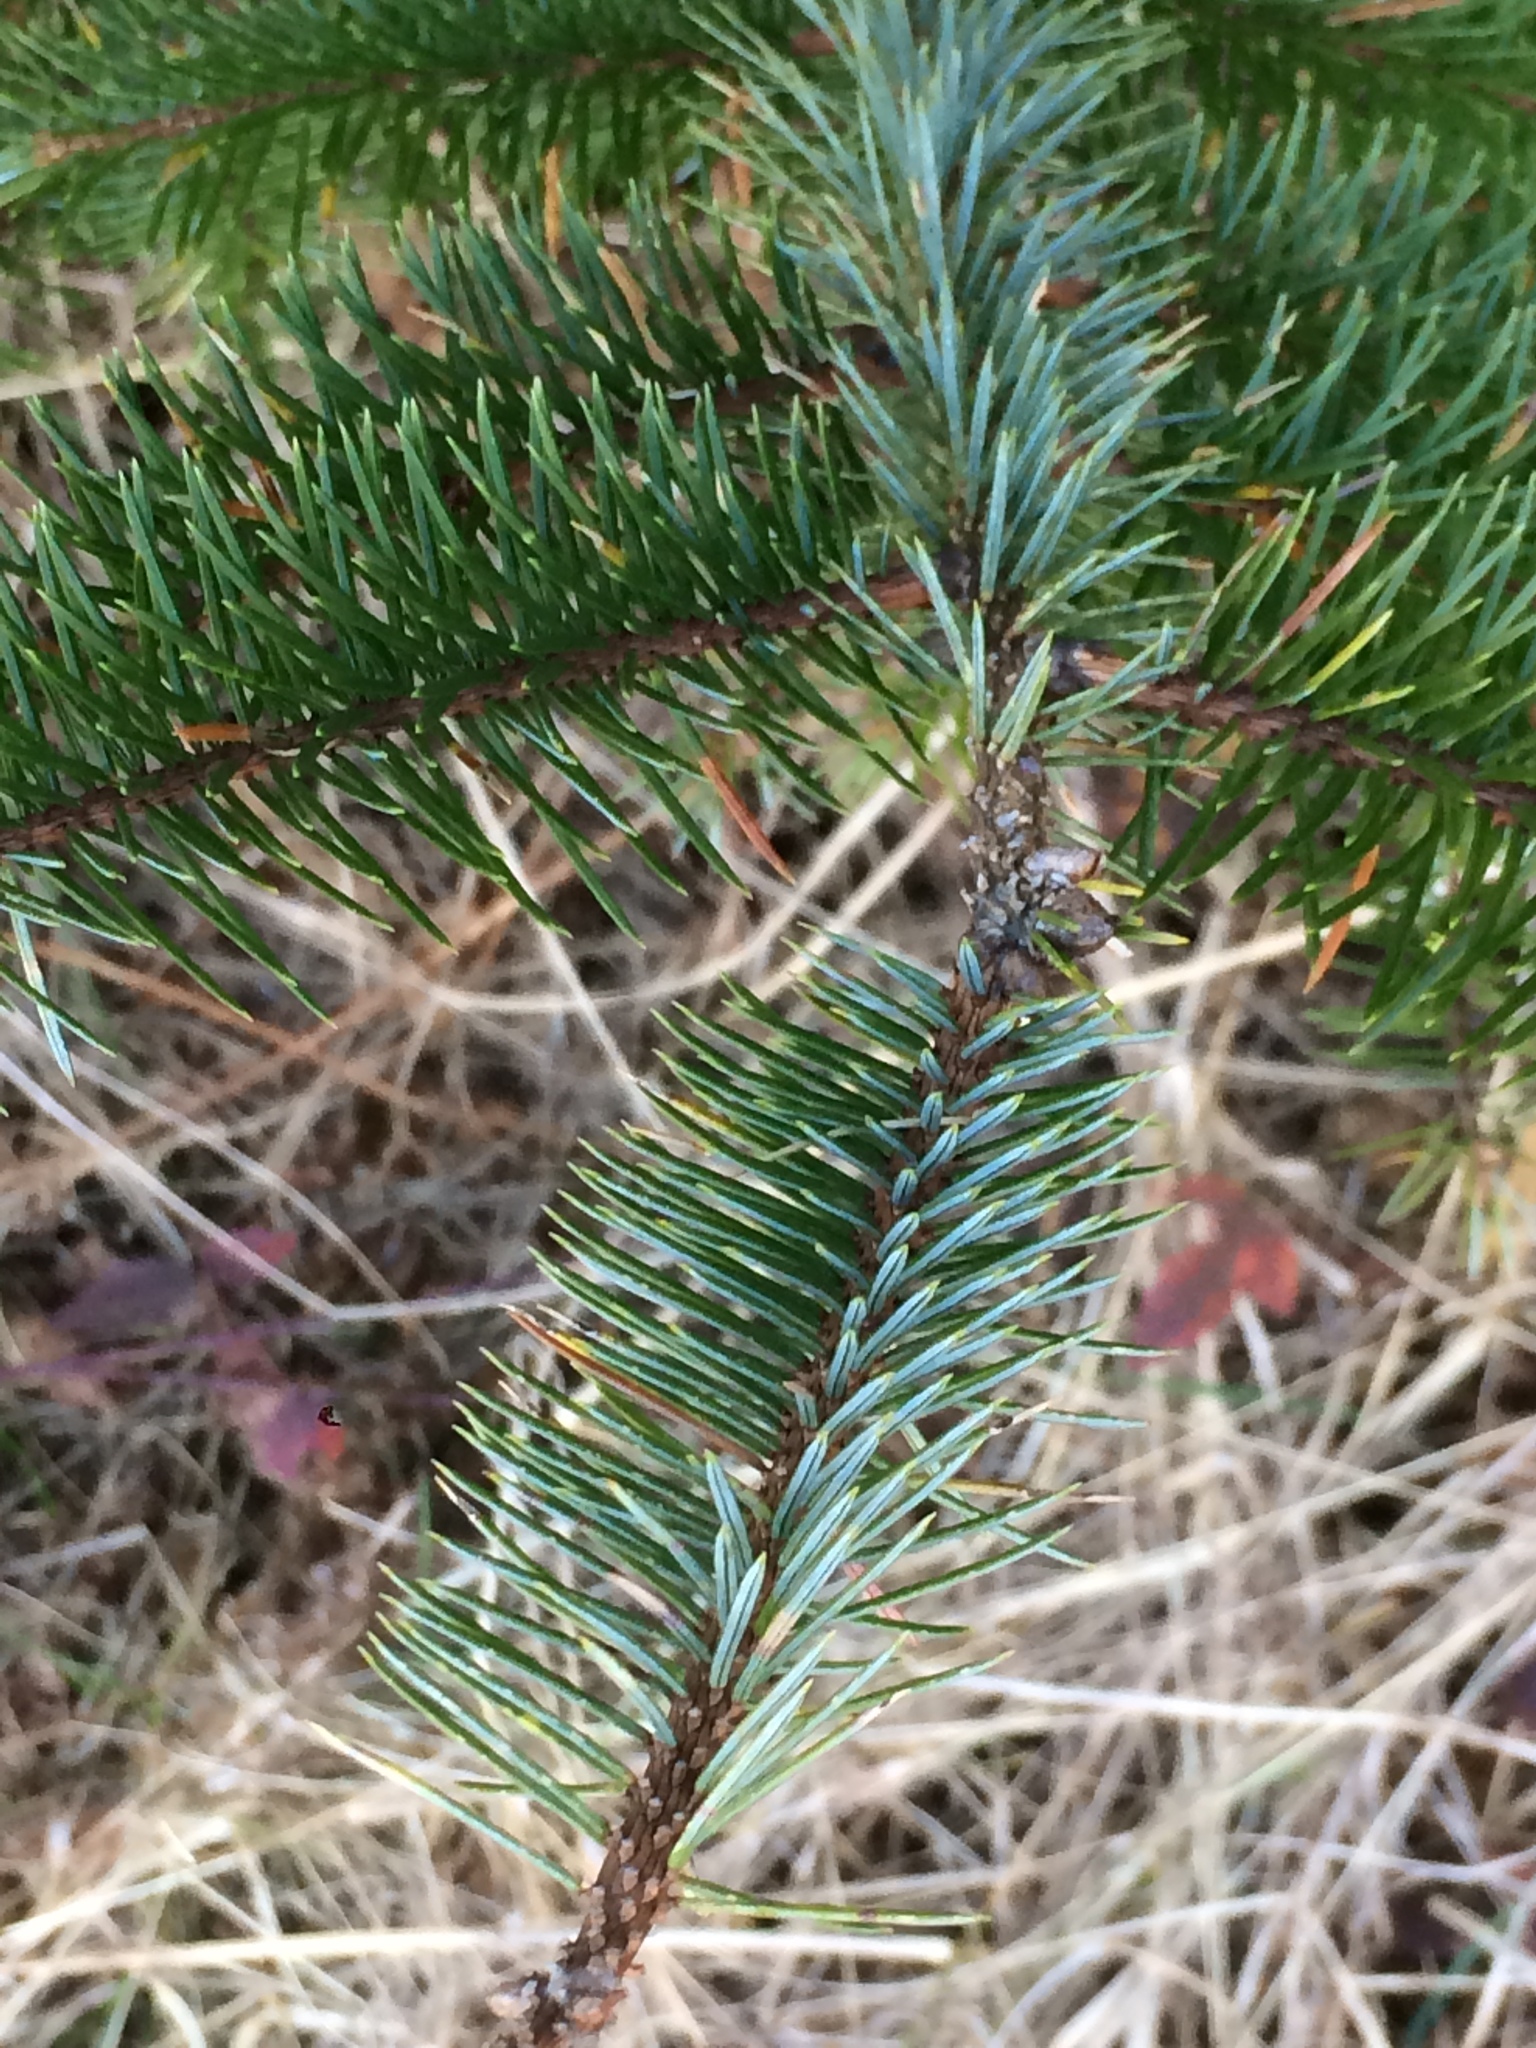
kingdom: Plantae
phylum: Tracheophyta
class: Pinopsida
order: Pinales
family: Pinaceae
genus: Picea
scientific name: Picea sitchensis
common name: Sitka spruce
